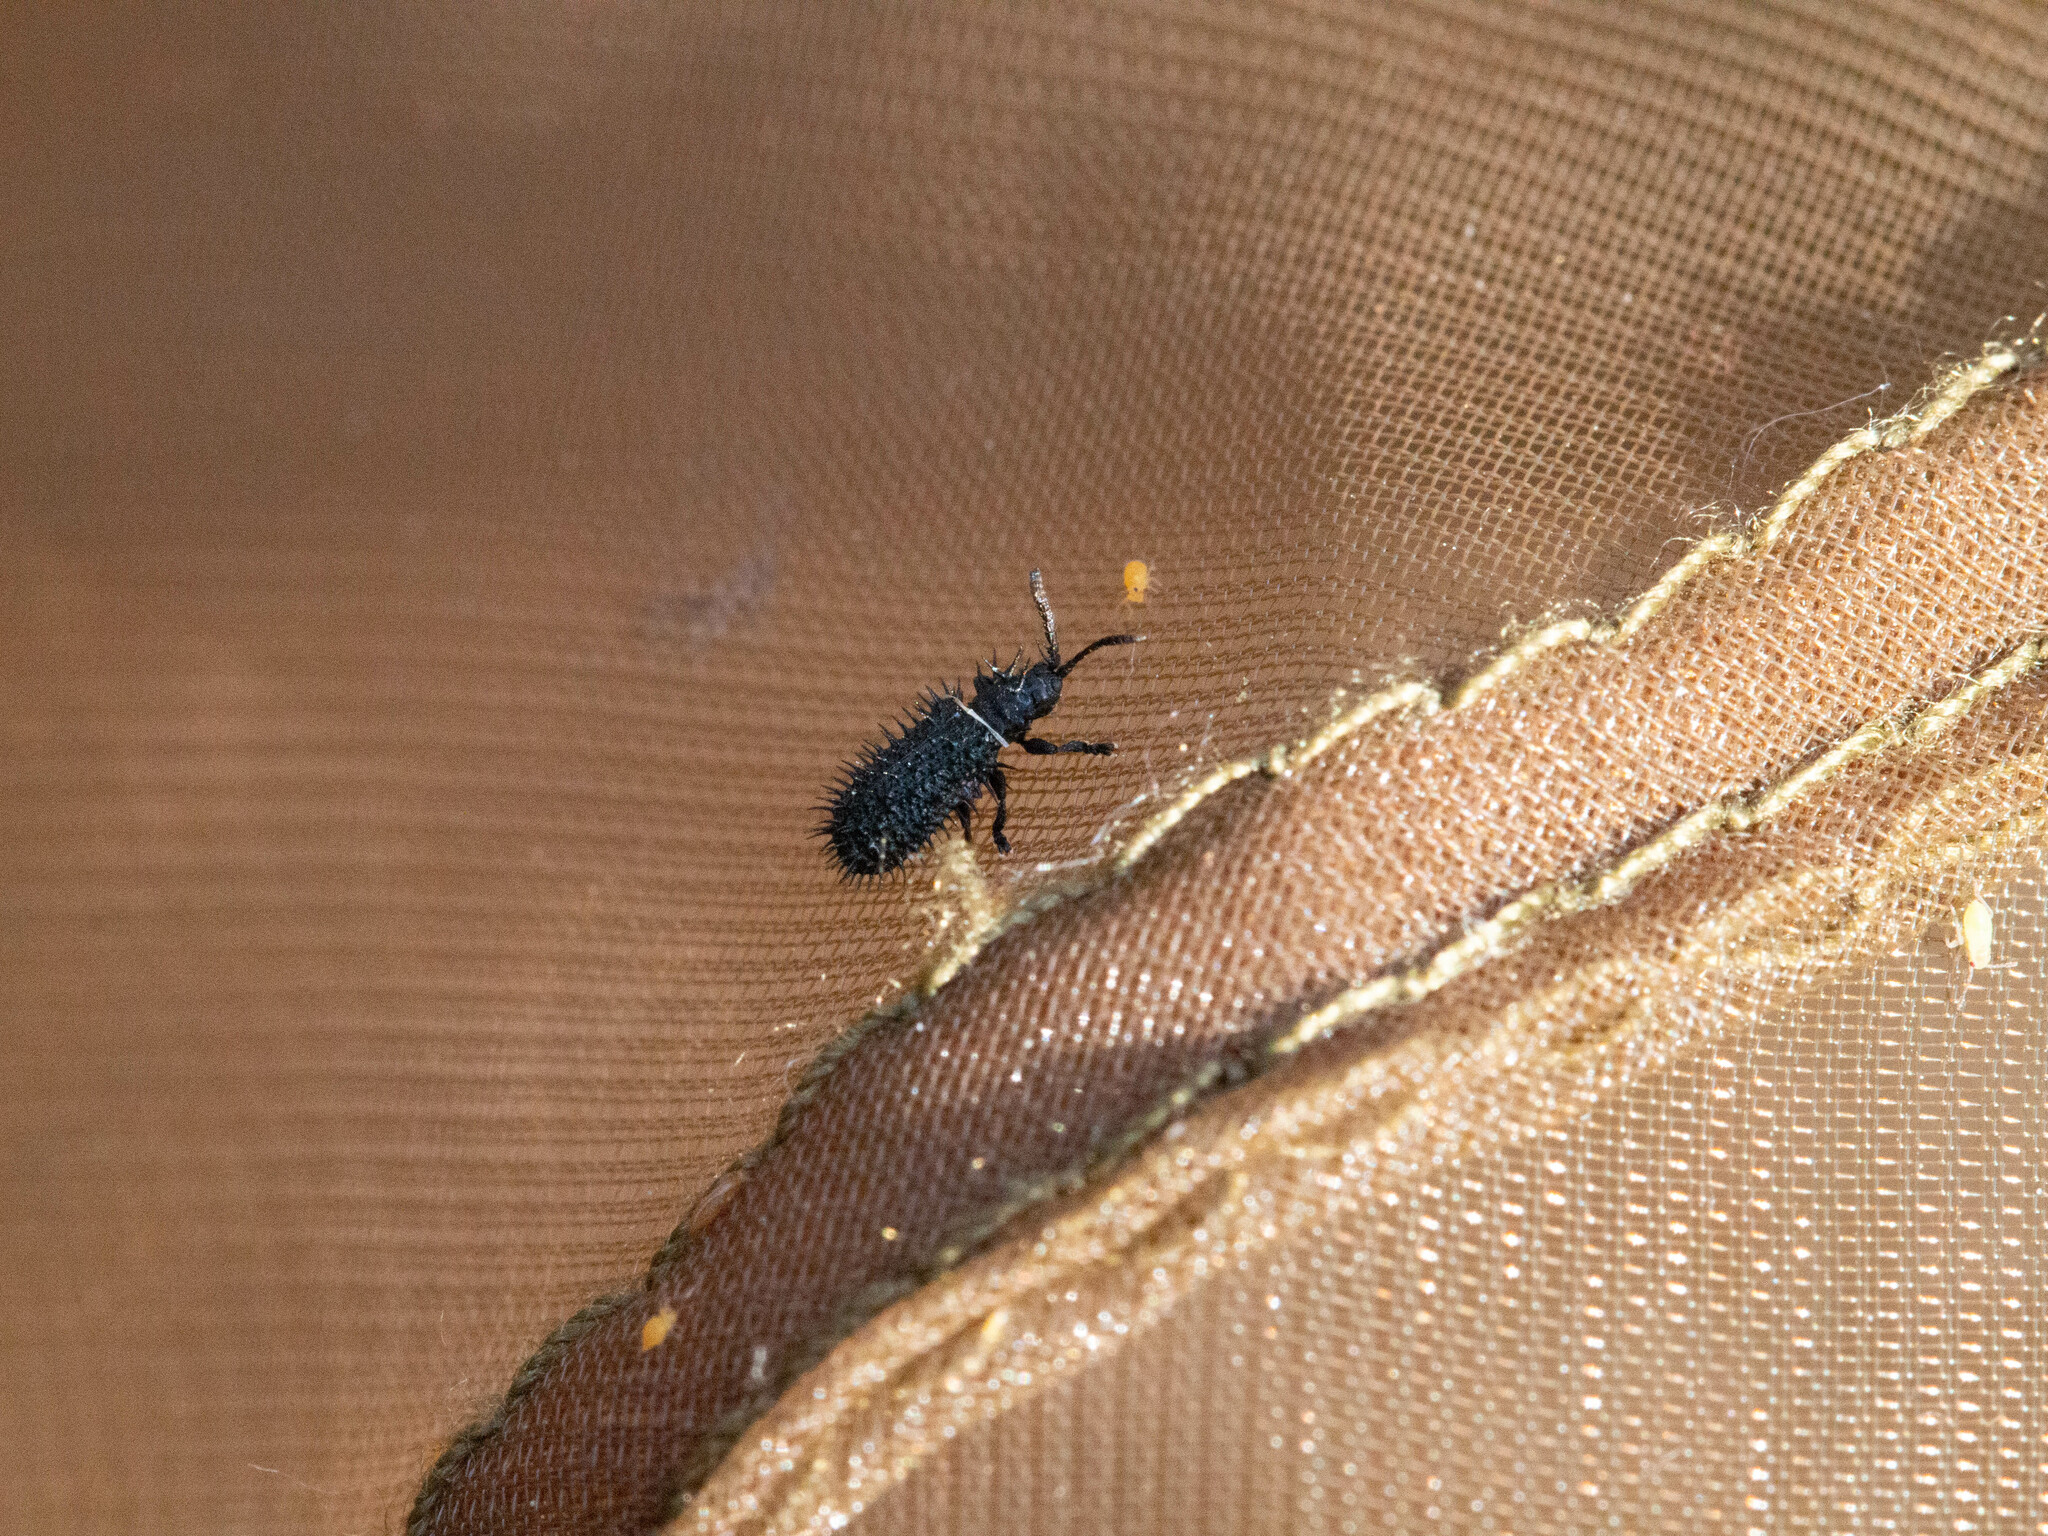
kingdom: Animalia
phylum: Arthropoda
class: Insecta
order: Coleoptera
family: Chrysomelidae
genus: Hispa
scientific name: Hispa atra
